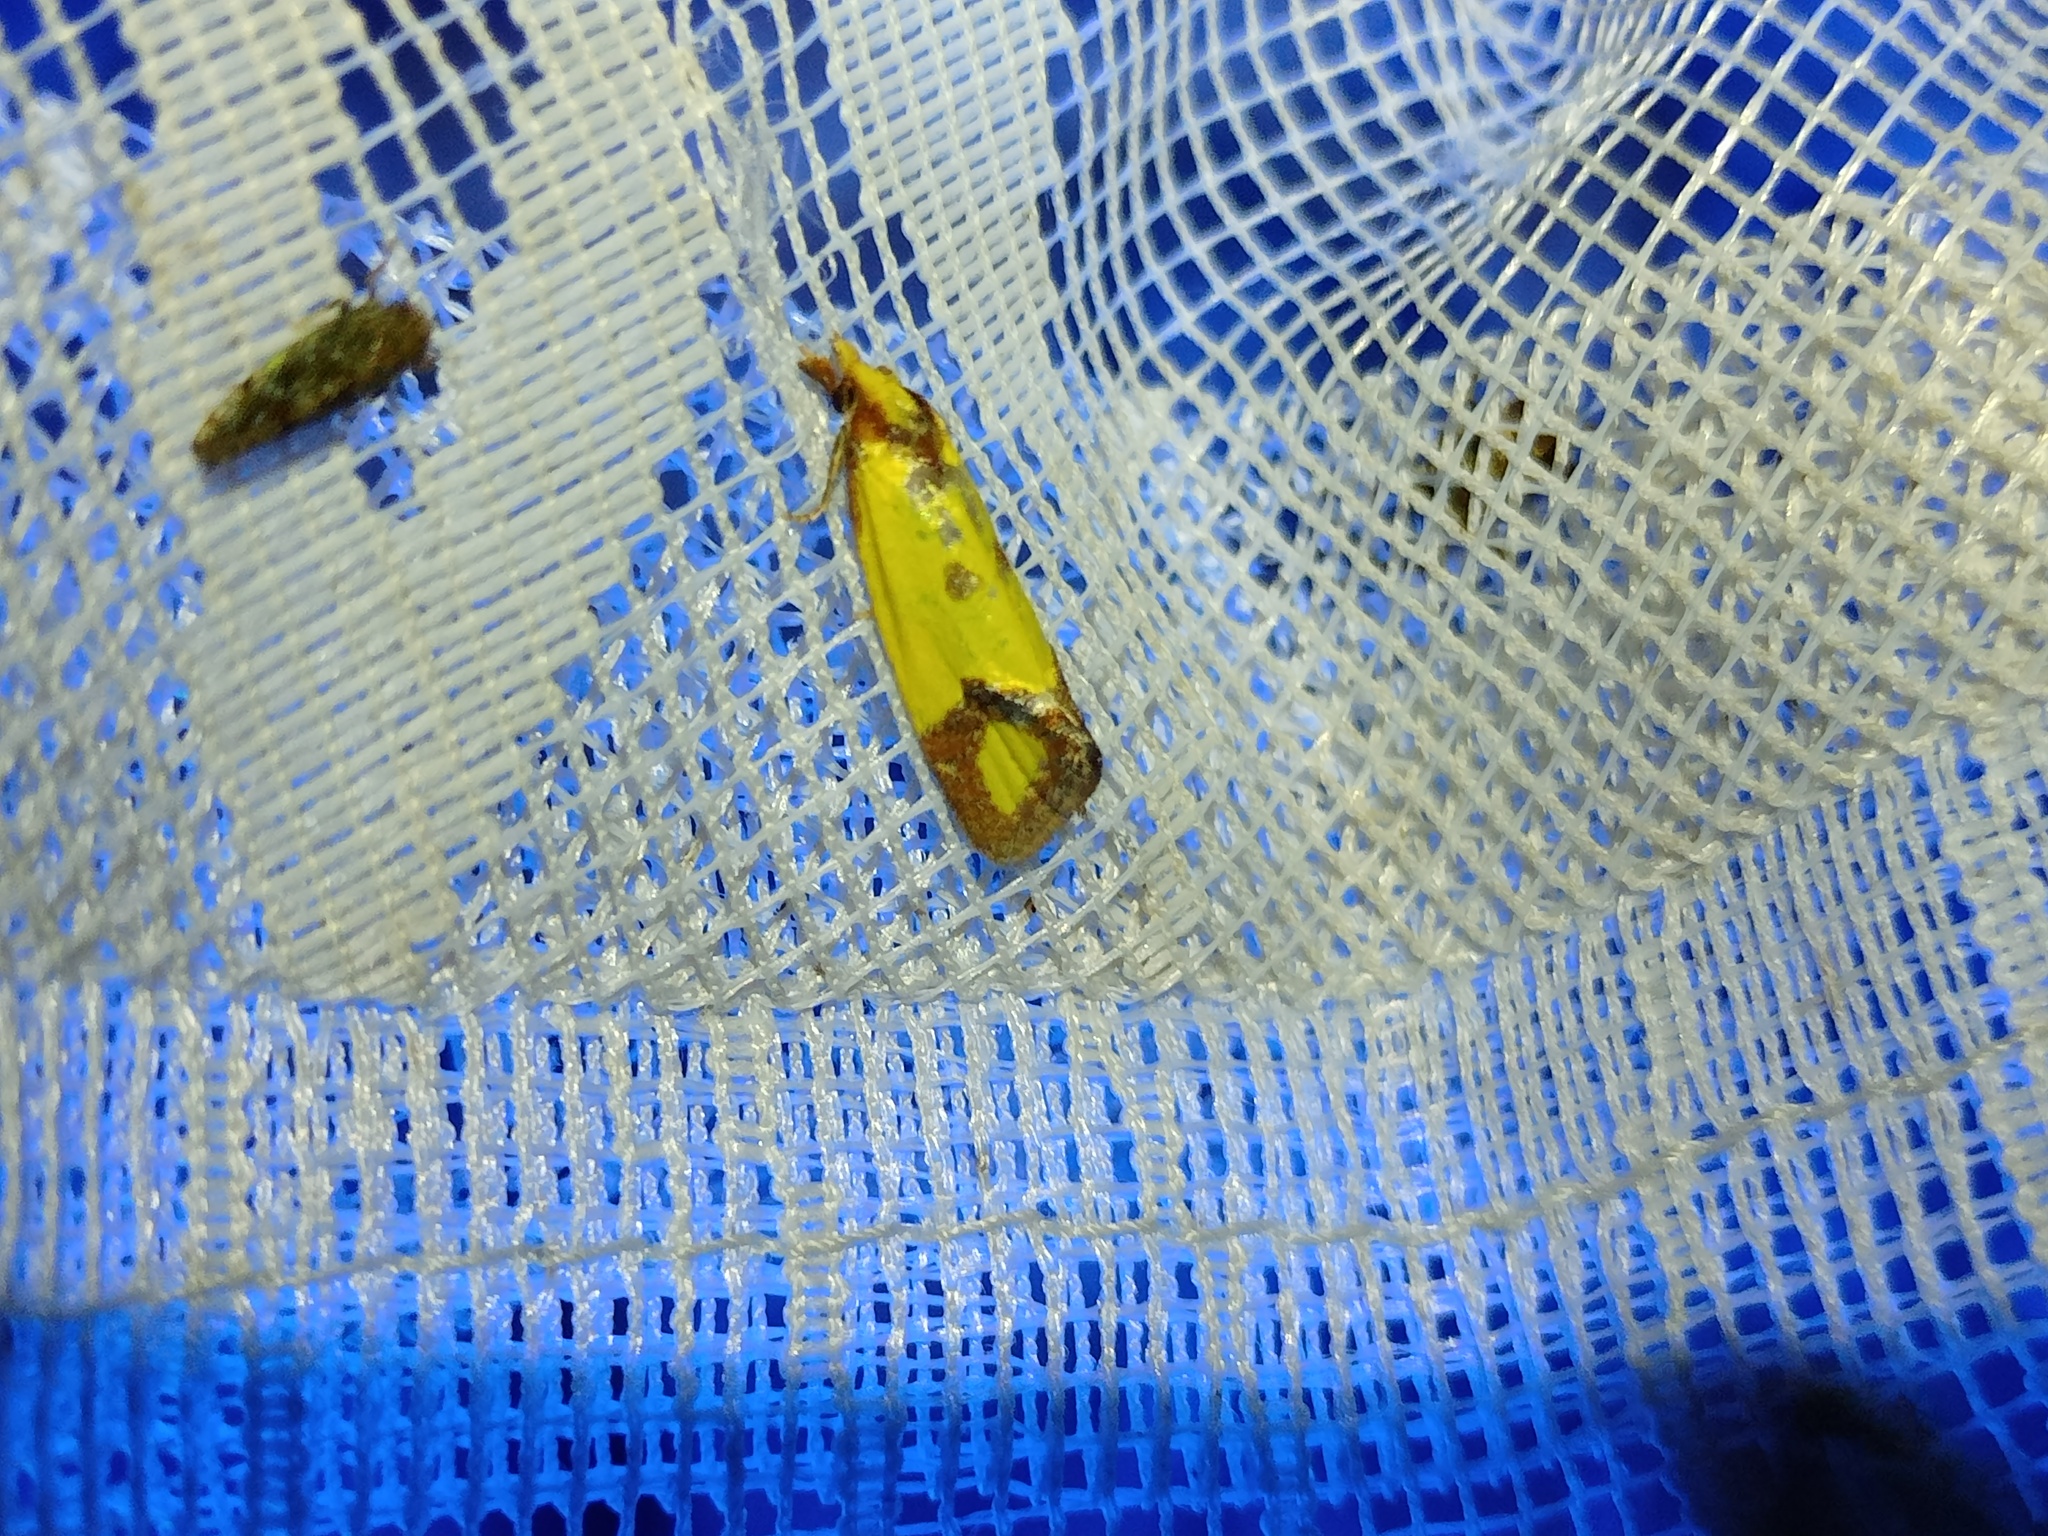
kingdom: Animalia
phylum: Arthropoda
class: Insecta
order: Lepidoptera
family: Tortricidae
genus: Agapeta
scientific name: Agapeta zoegana
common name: Sulfur knapweed root moth
